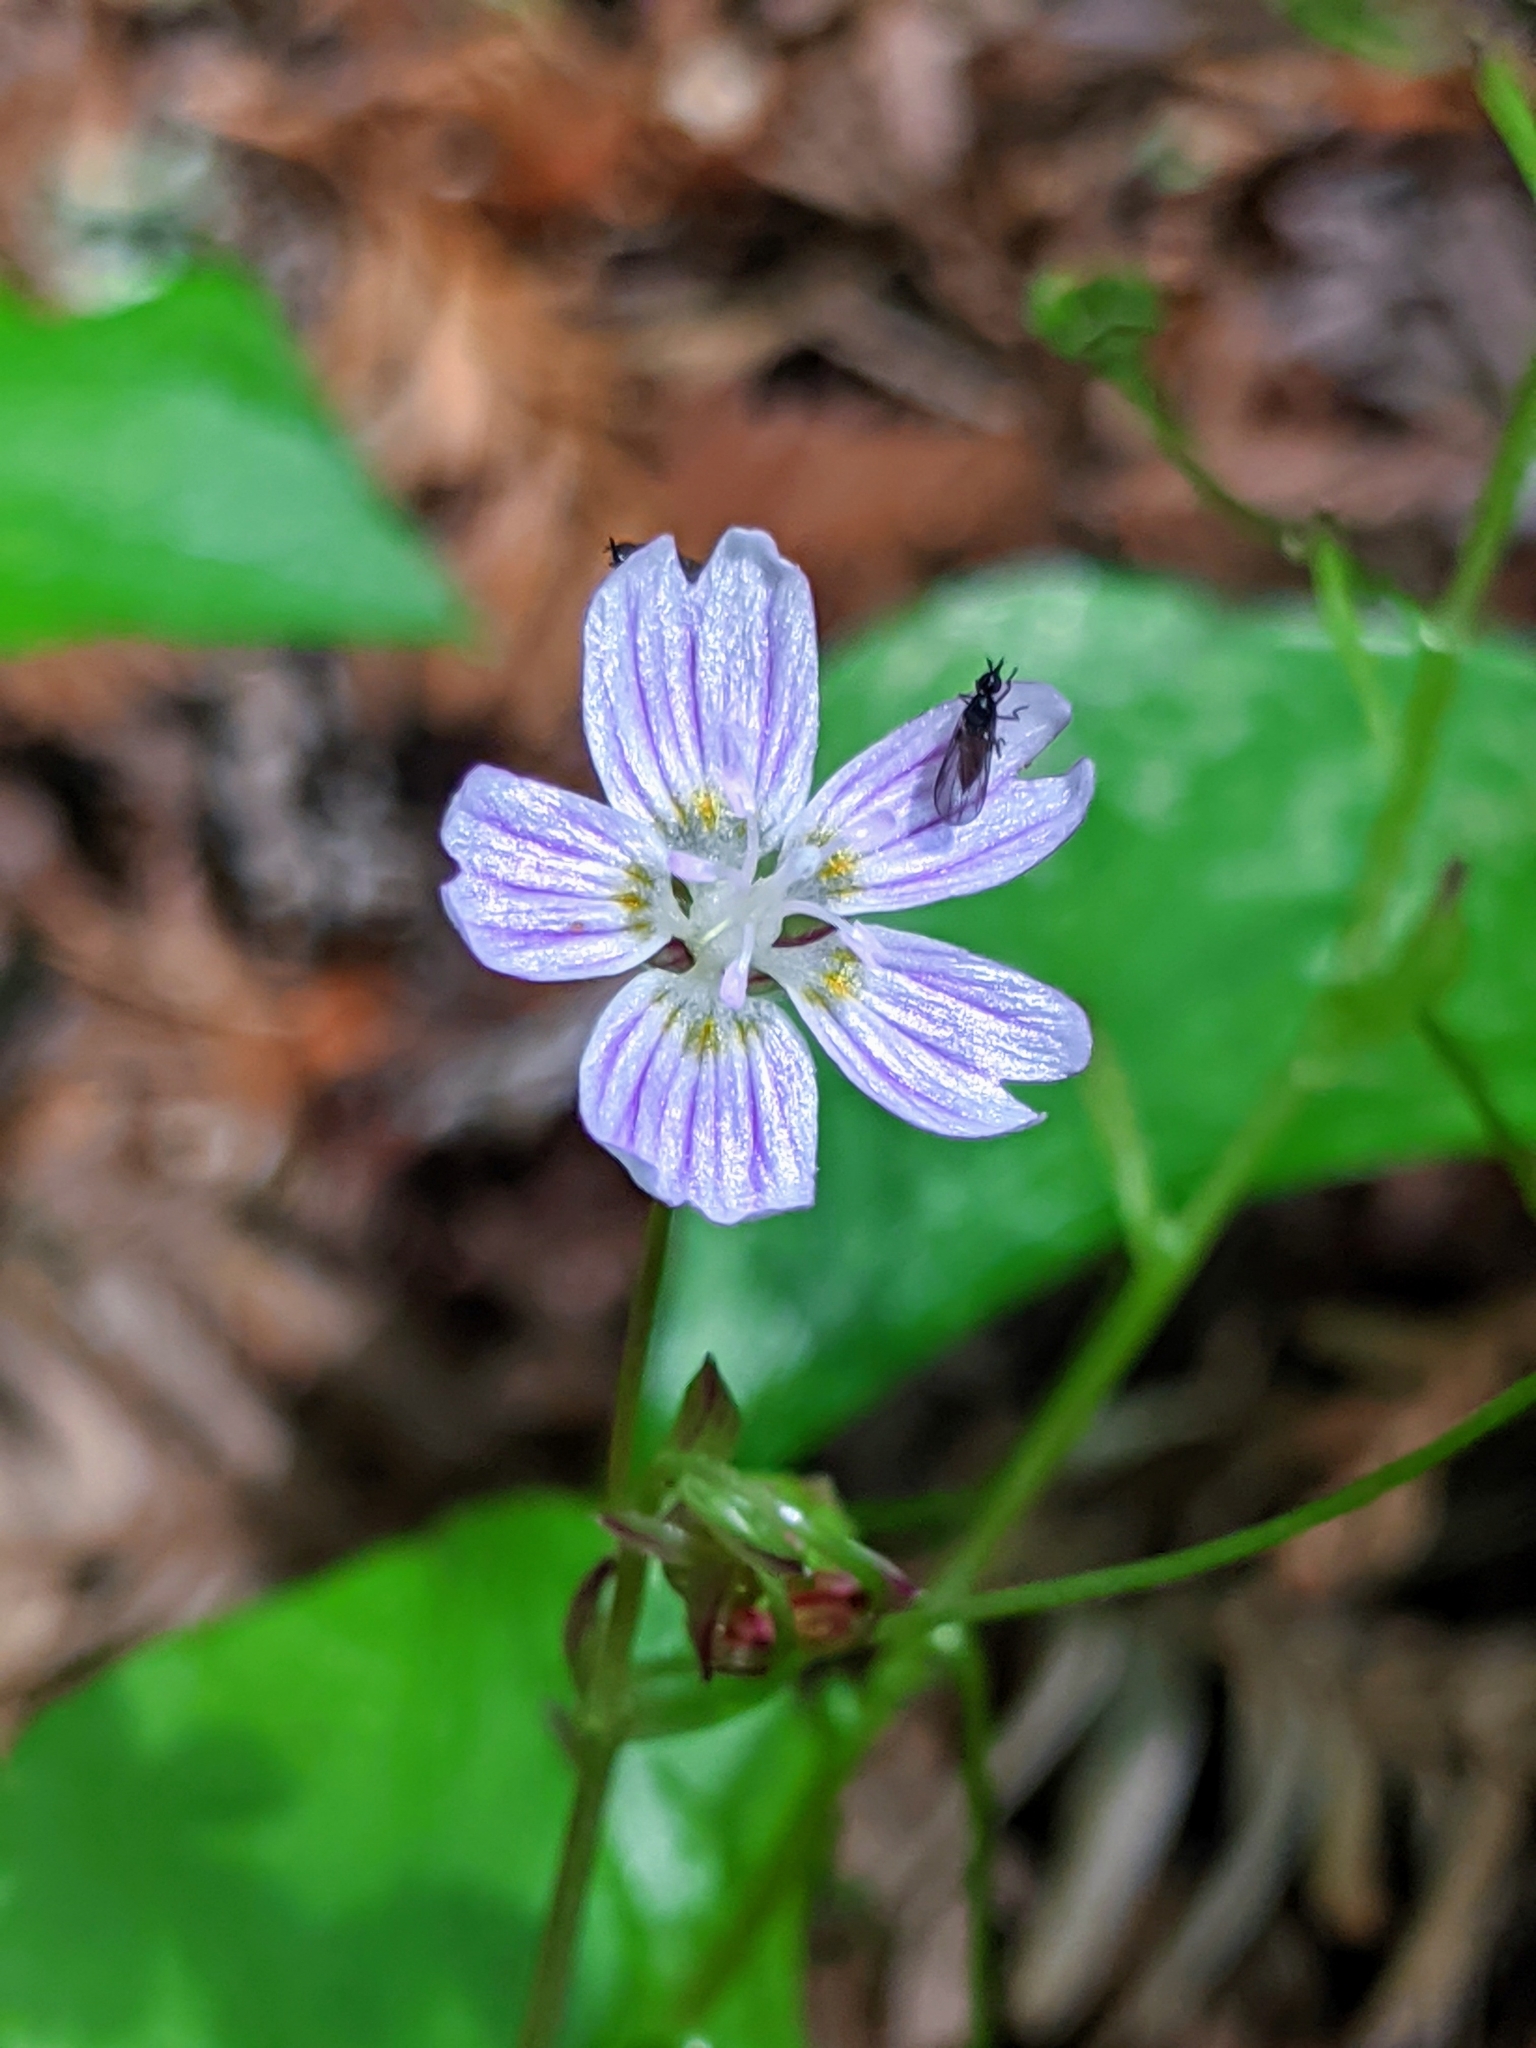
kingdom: Plantae
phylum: Tracheophyta
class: Magnoliopsida
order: Caryophyllales
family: Montiaceae
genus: Claytonia
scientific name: Claytonia sibirica
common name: Pink purslane
